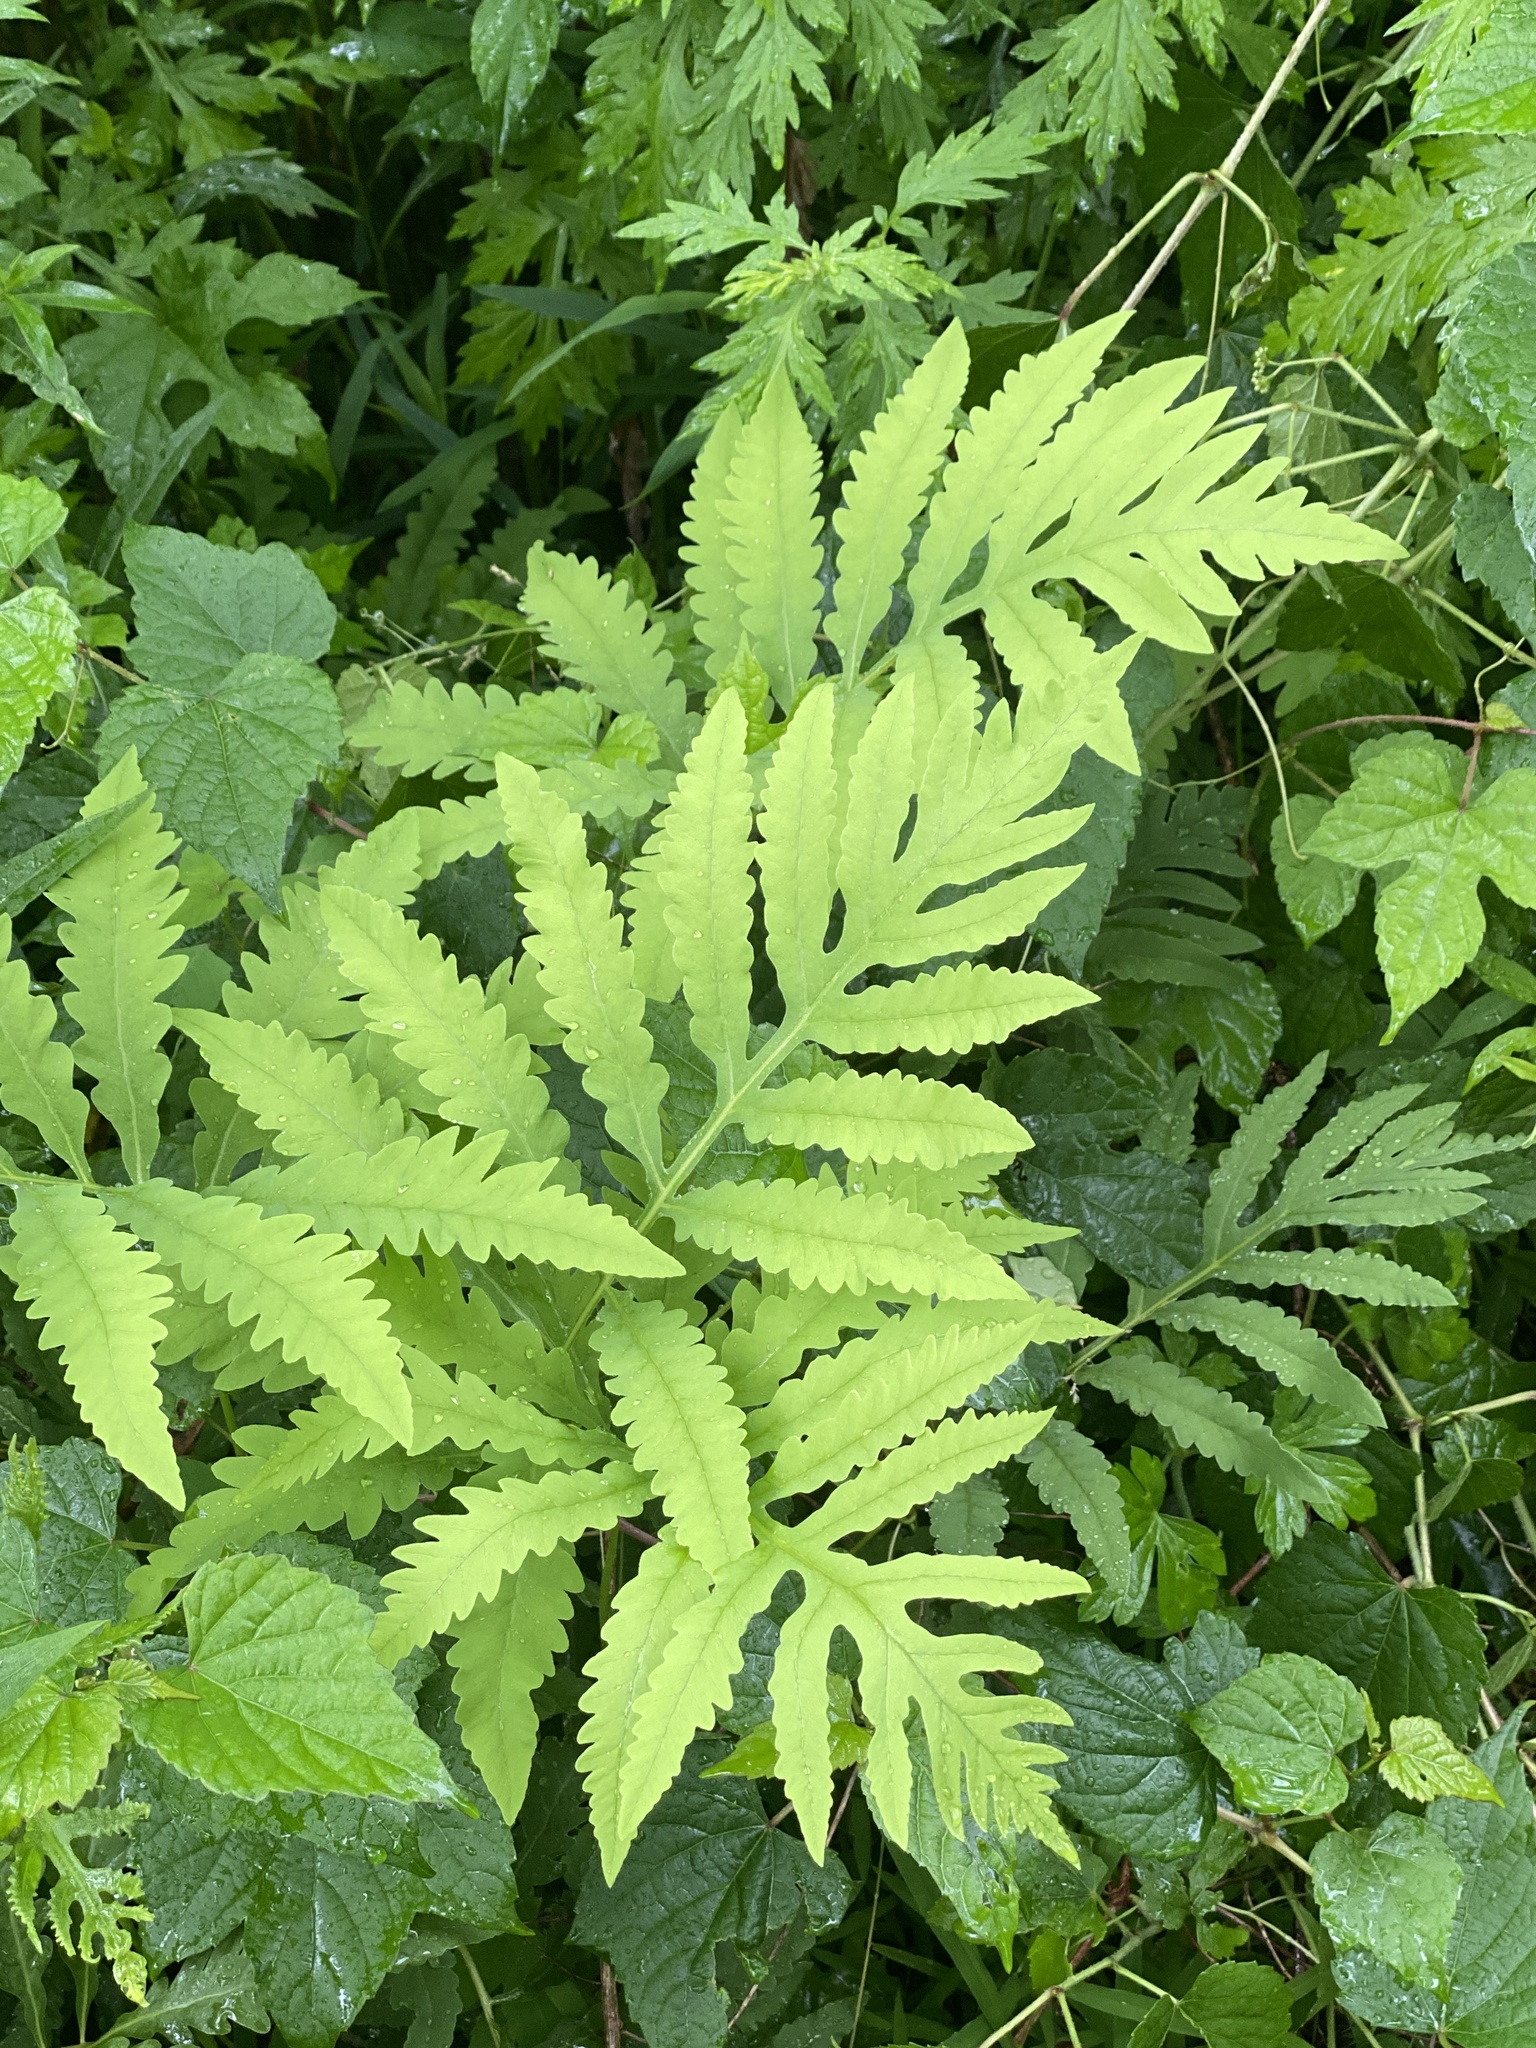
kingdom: Plantae
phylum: Tracheophyta
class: Polypodiopsida
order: Polypodiales
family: Onocleaceae
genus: Onoclea
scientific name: Onoclea sensibilis
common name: Sensitive fern
